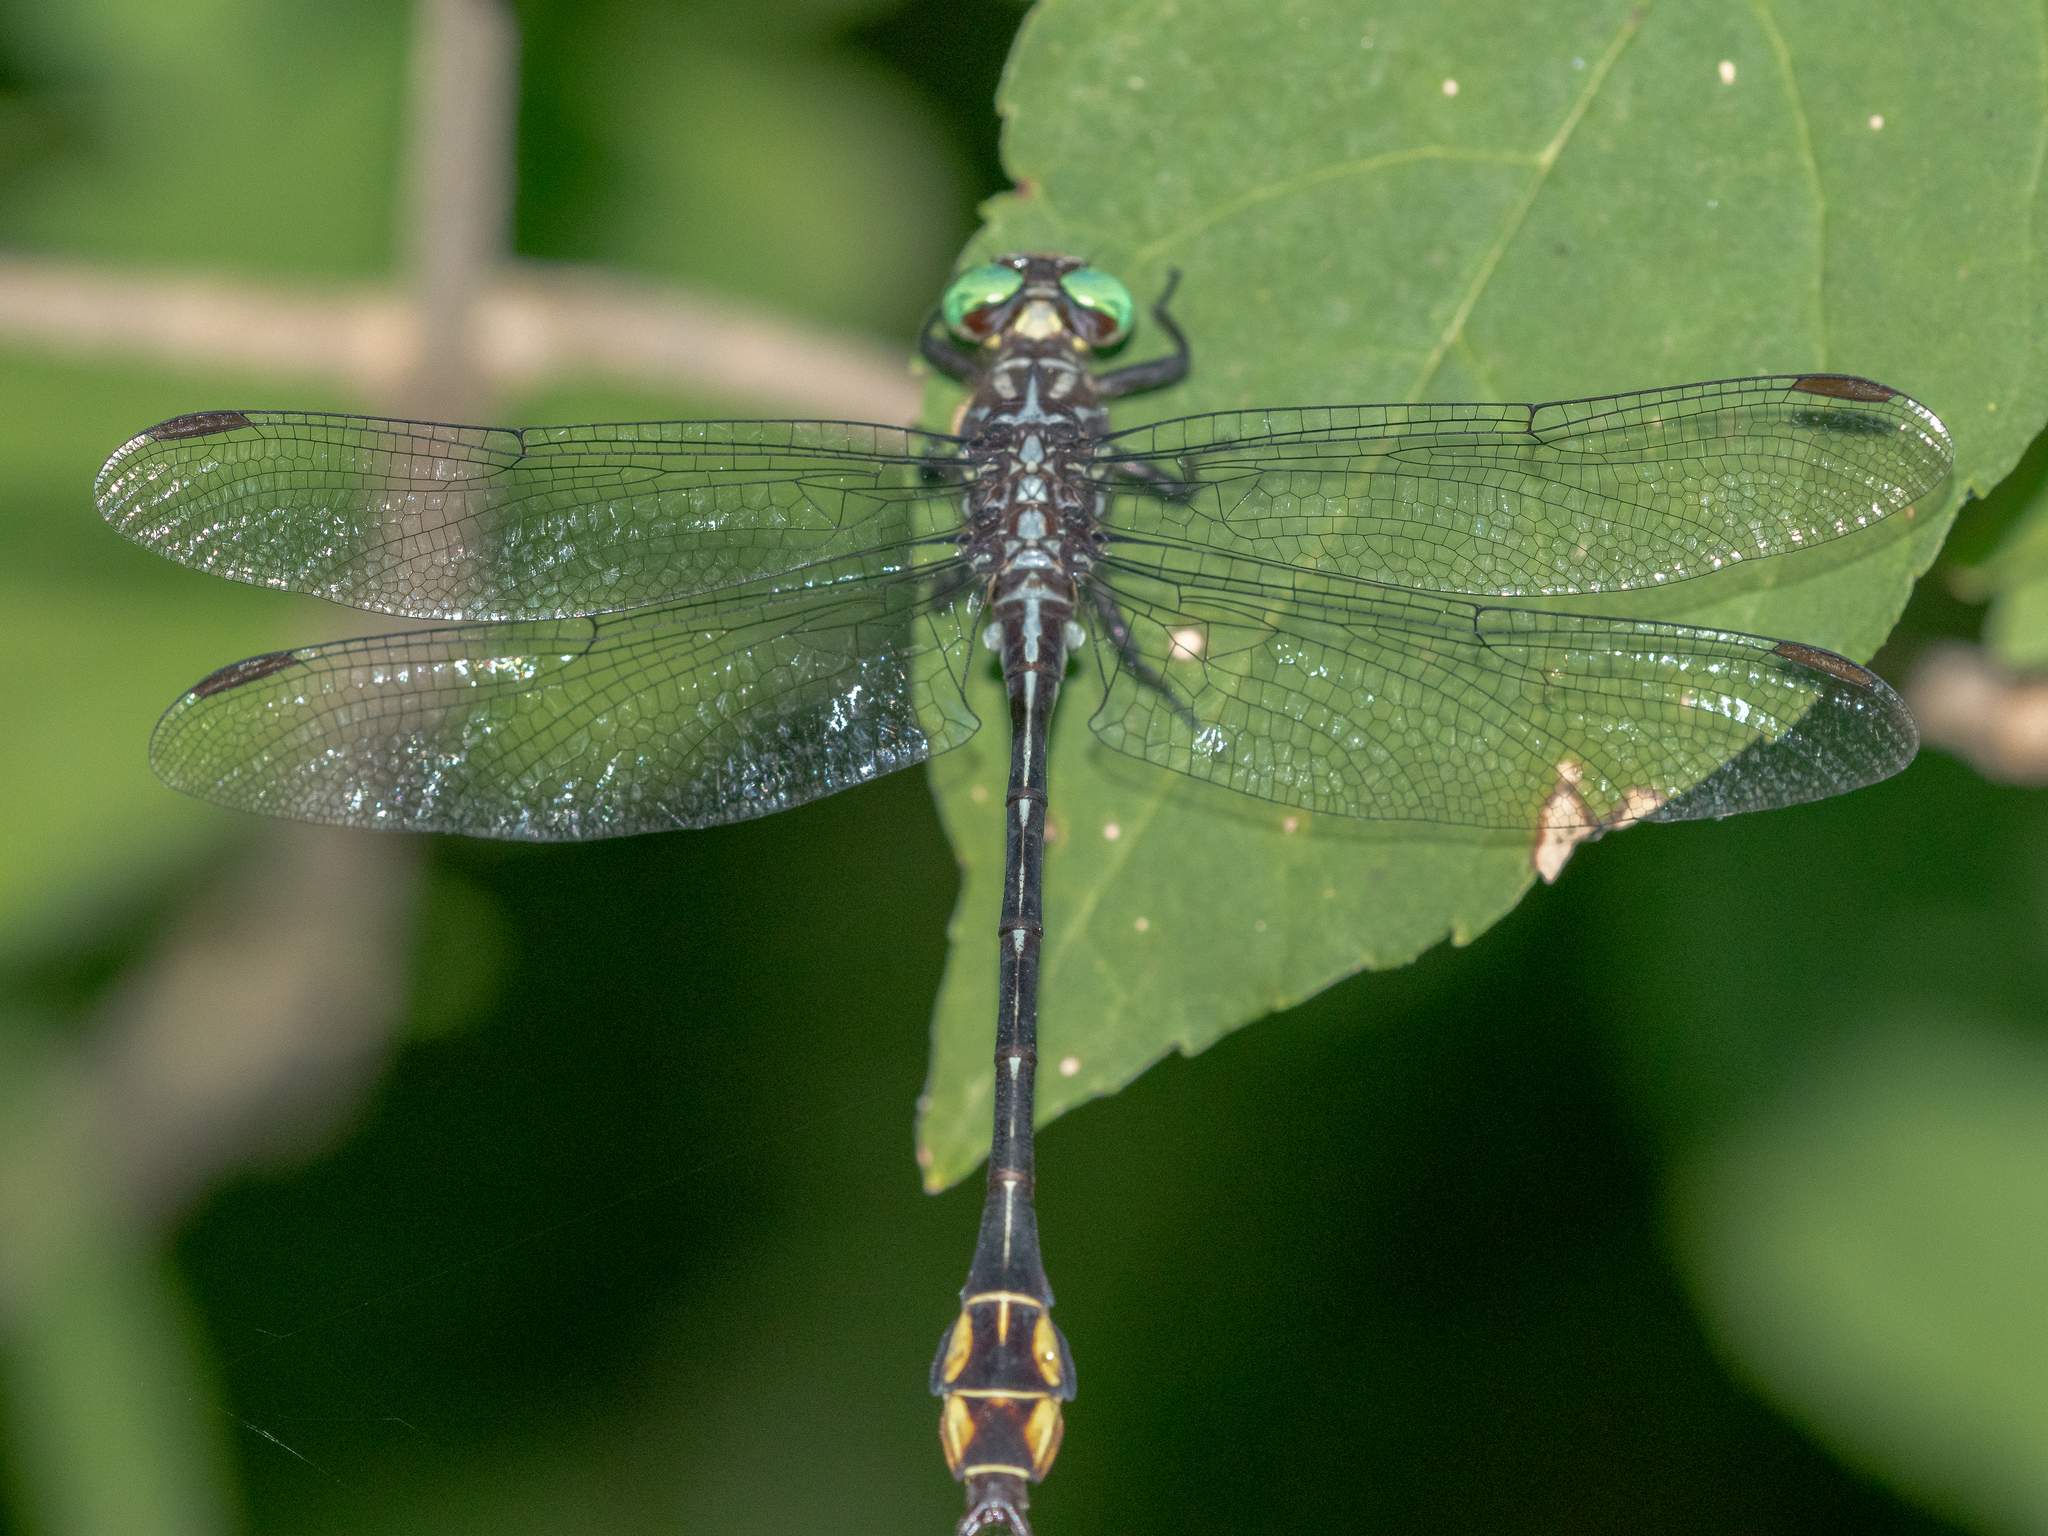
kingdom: Animalia
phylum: Arthropoda
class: Insecta
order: Odonata
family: Gomphidae
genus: Stylurus
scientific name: Stylurus laurae
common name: Laura's clubtail
